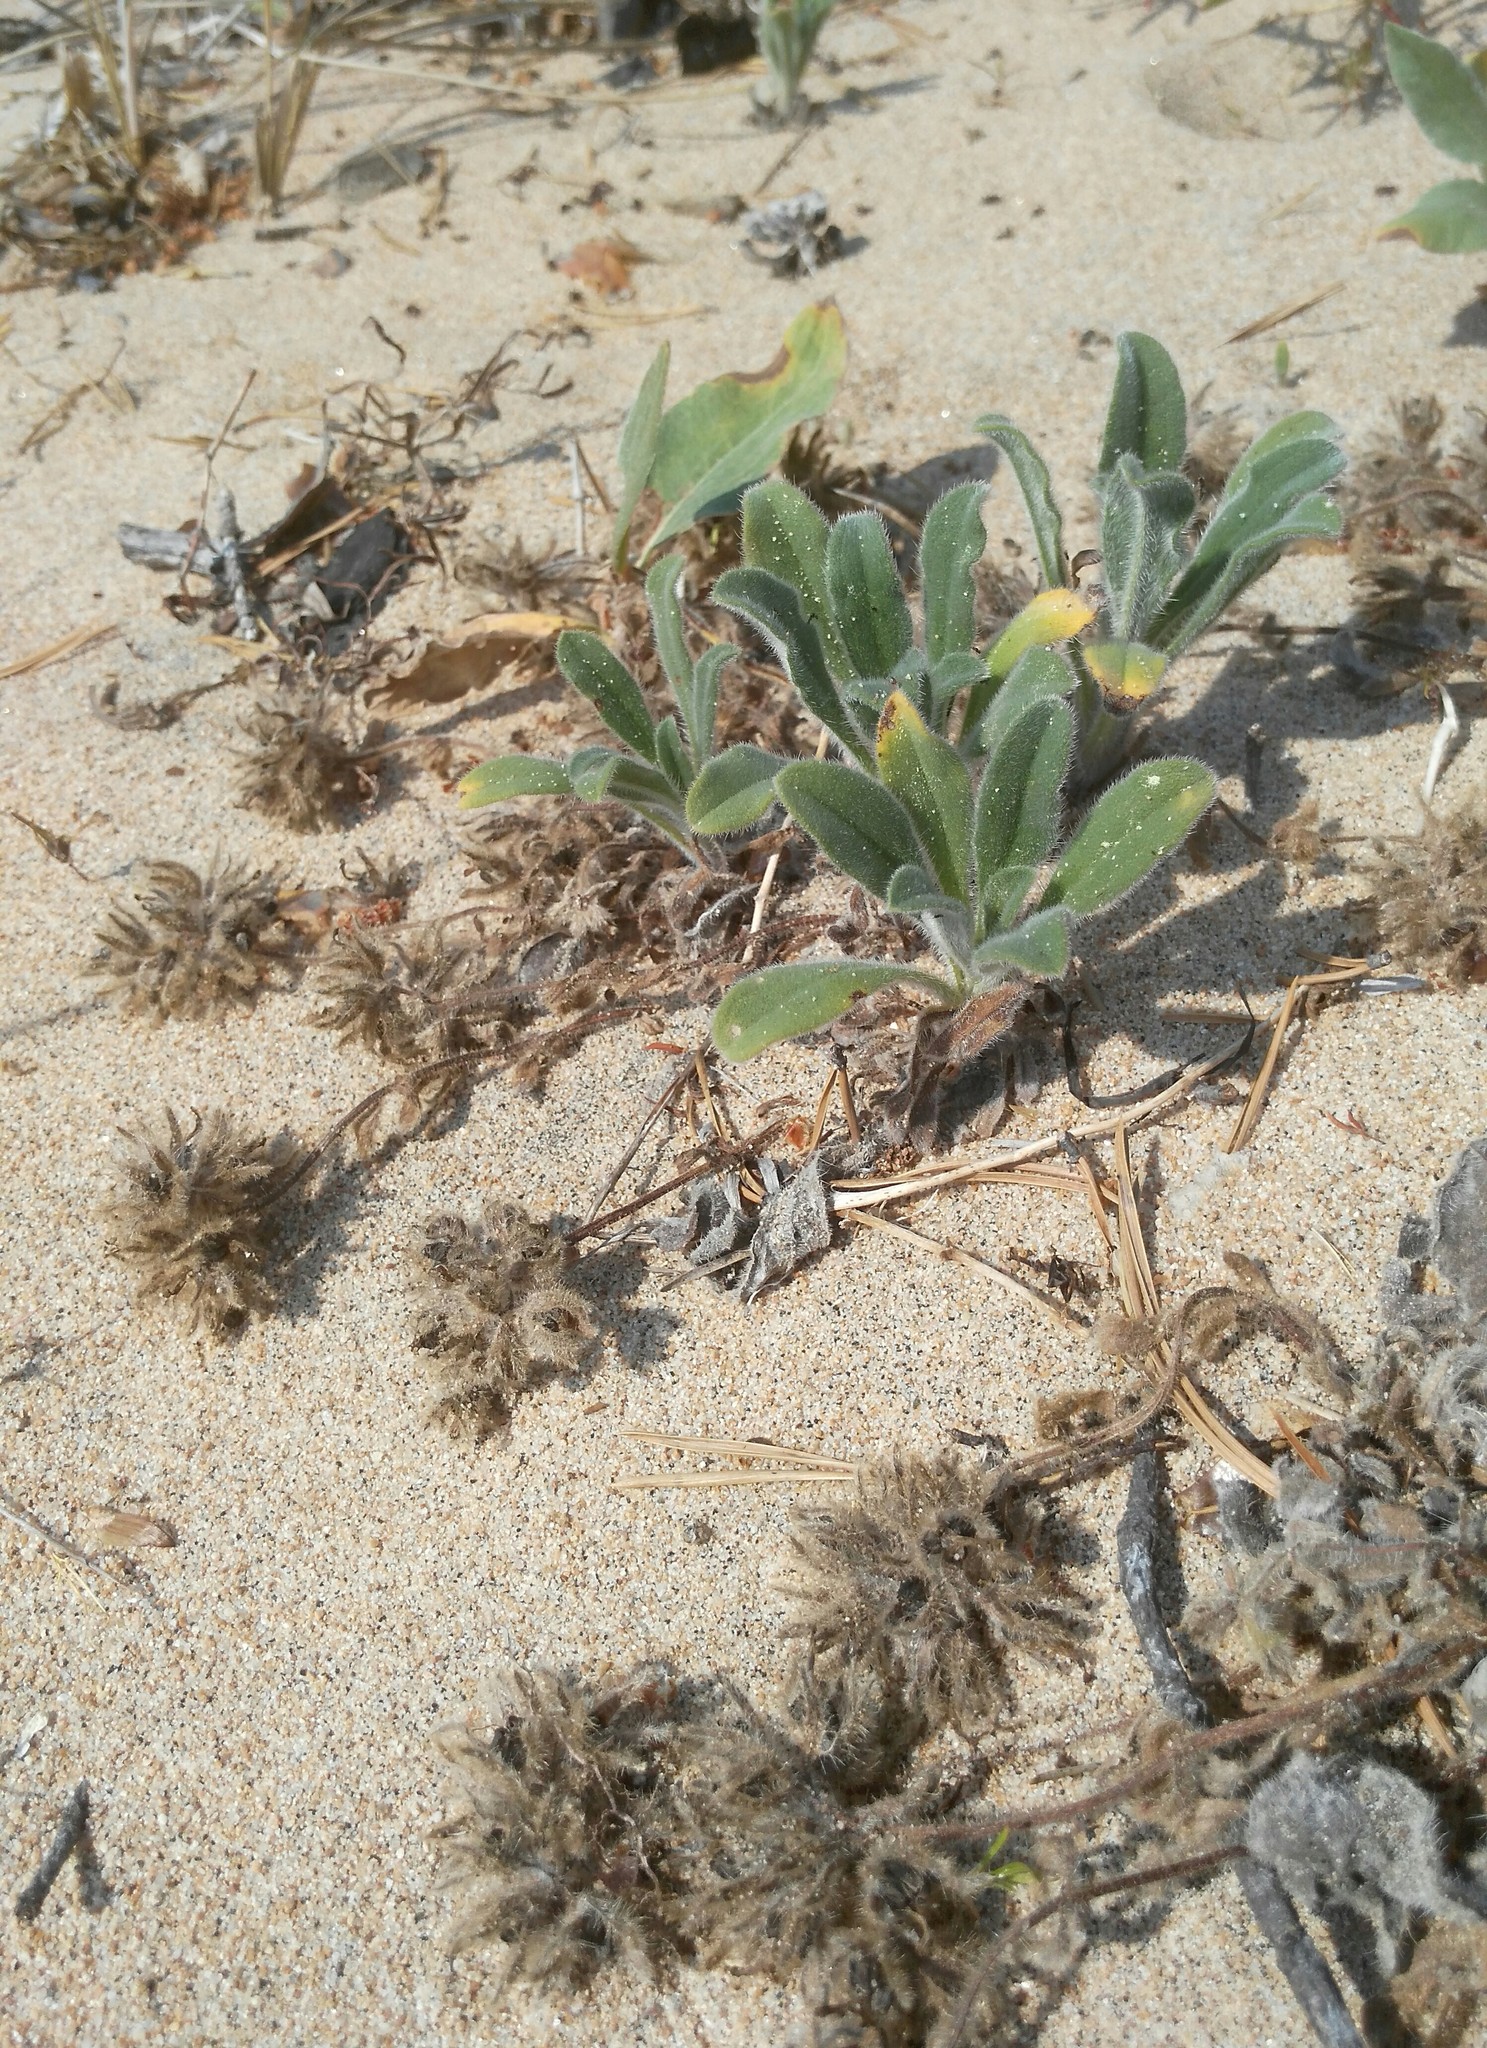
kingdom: Plantae
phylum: Tracheophyta
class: Magnoliopsida
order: Boraginales
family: Boraginaceae
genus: Craniospermum
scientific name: Craniospermum subvillosum
